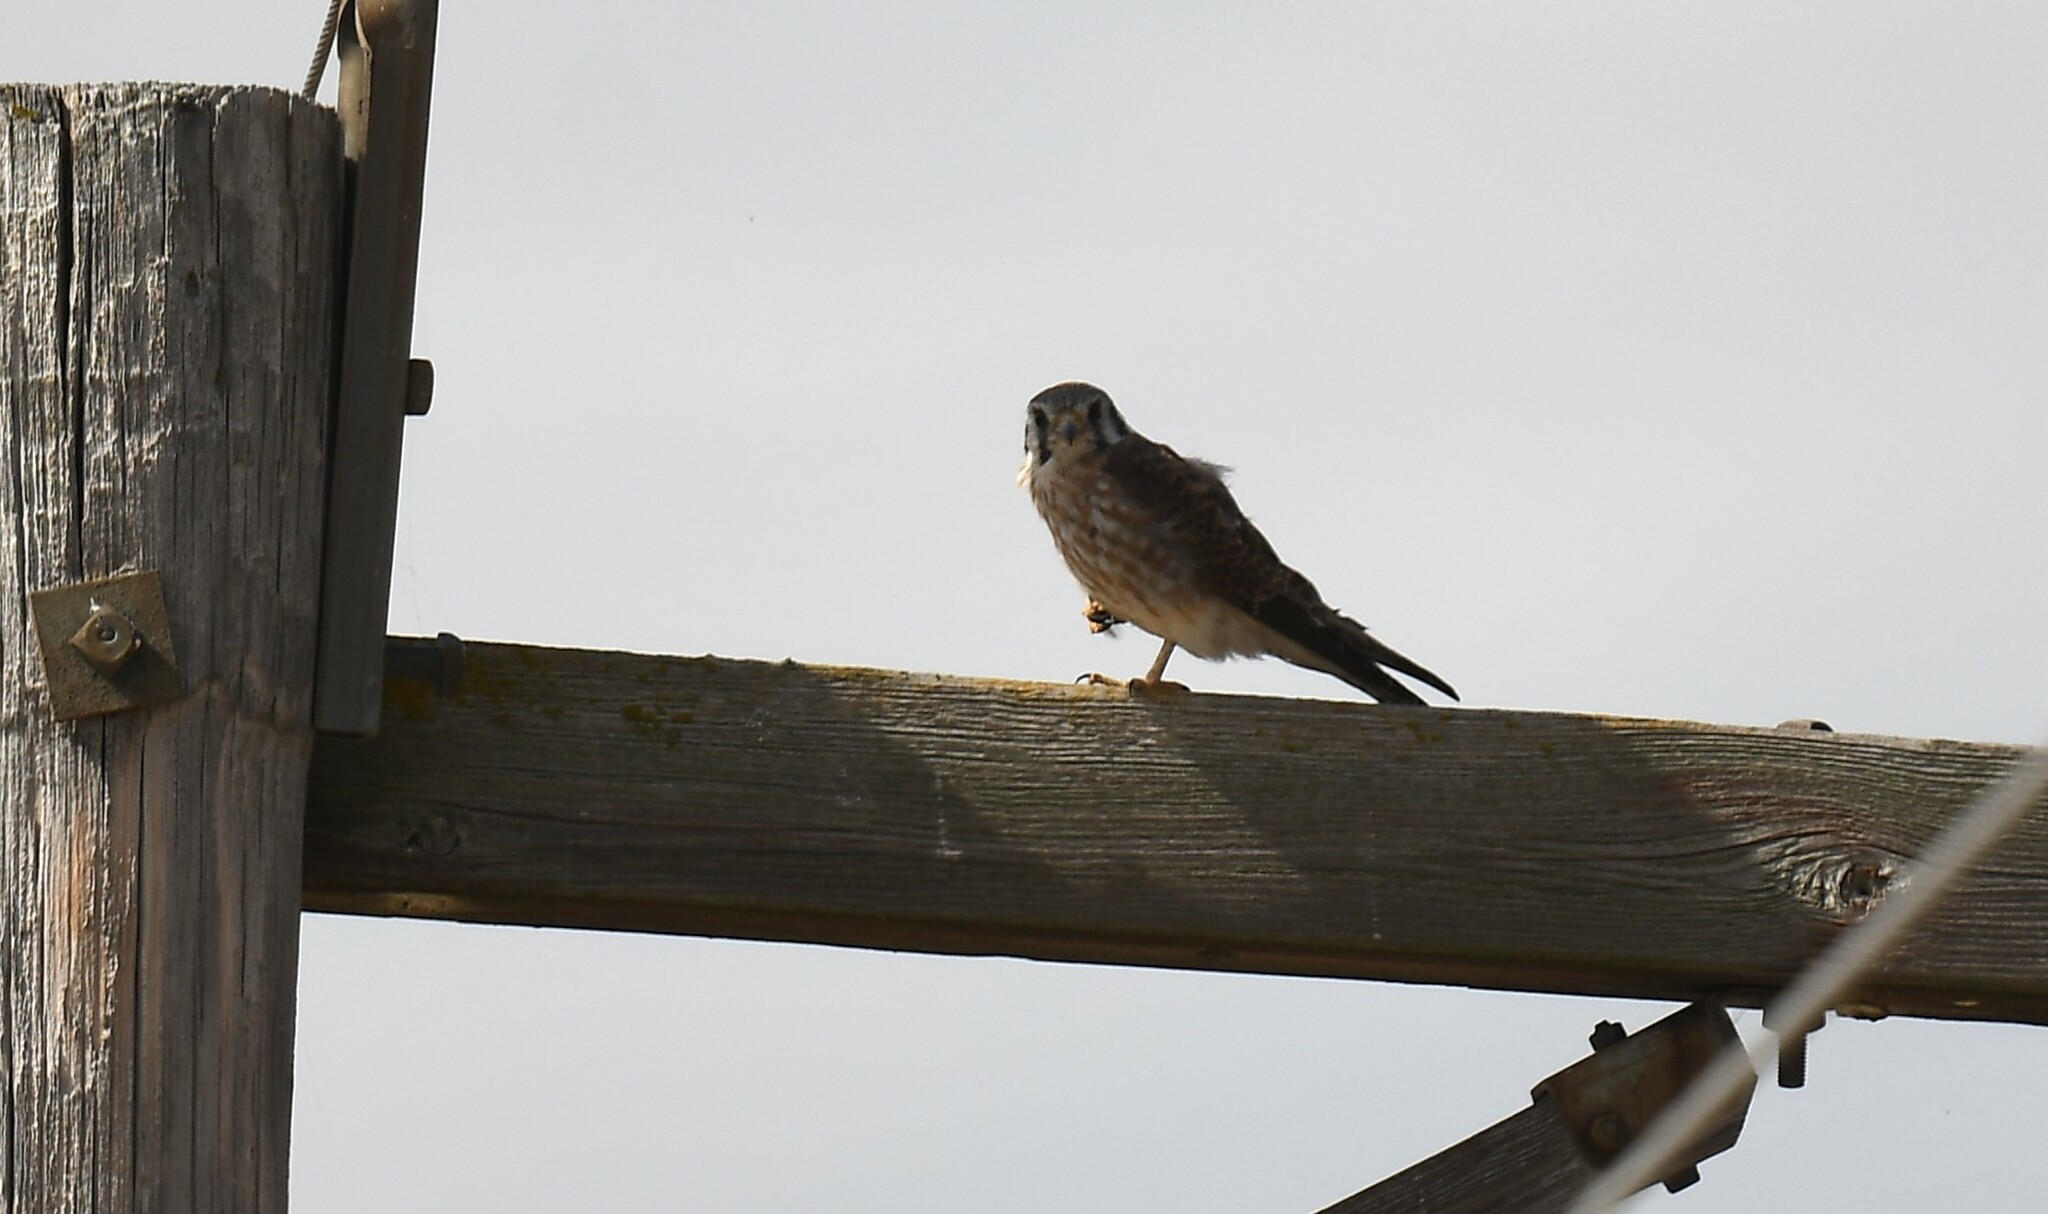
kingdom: Animalia
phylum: Chordata
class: Aves
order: Falconiformes
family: Falconidae
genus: Falco
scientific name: Falco sparverius
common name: American kestrel
